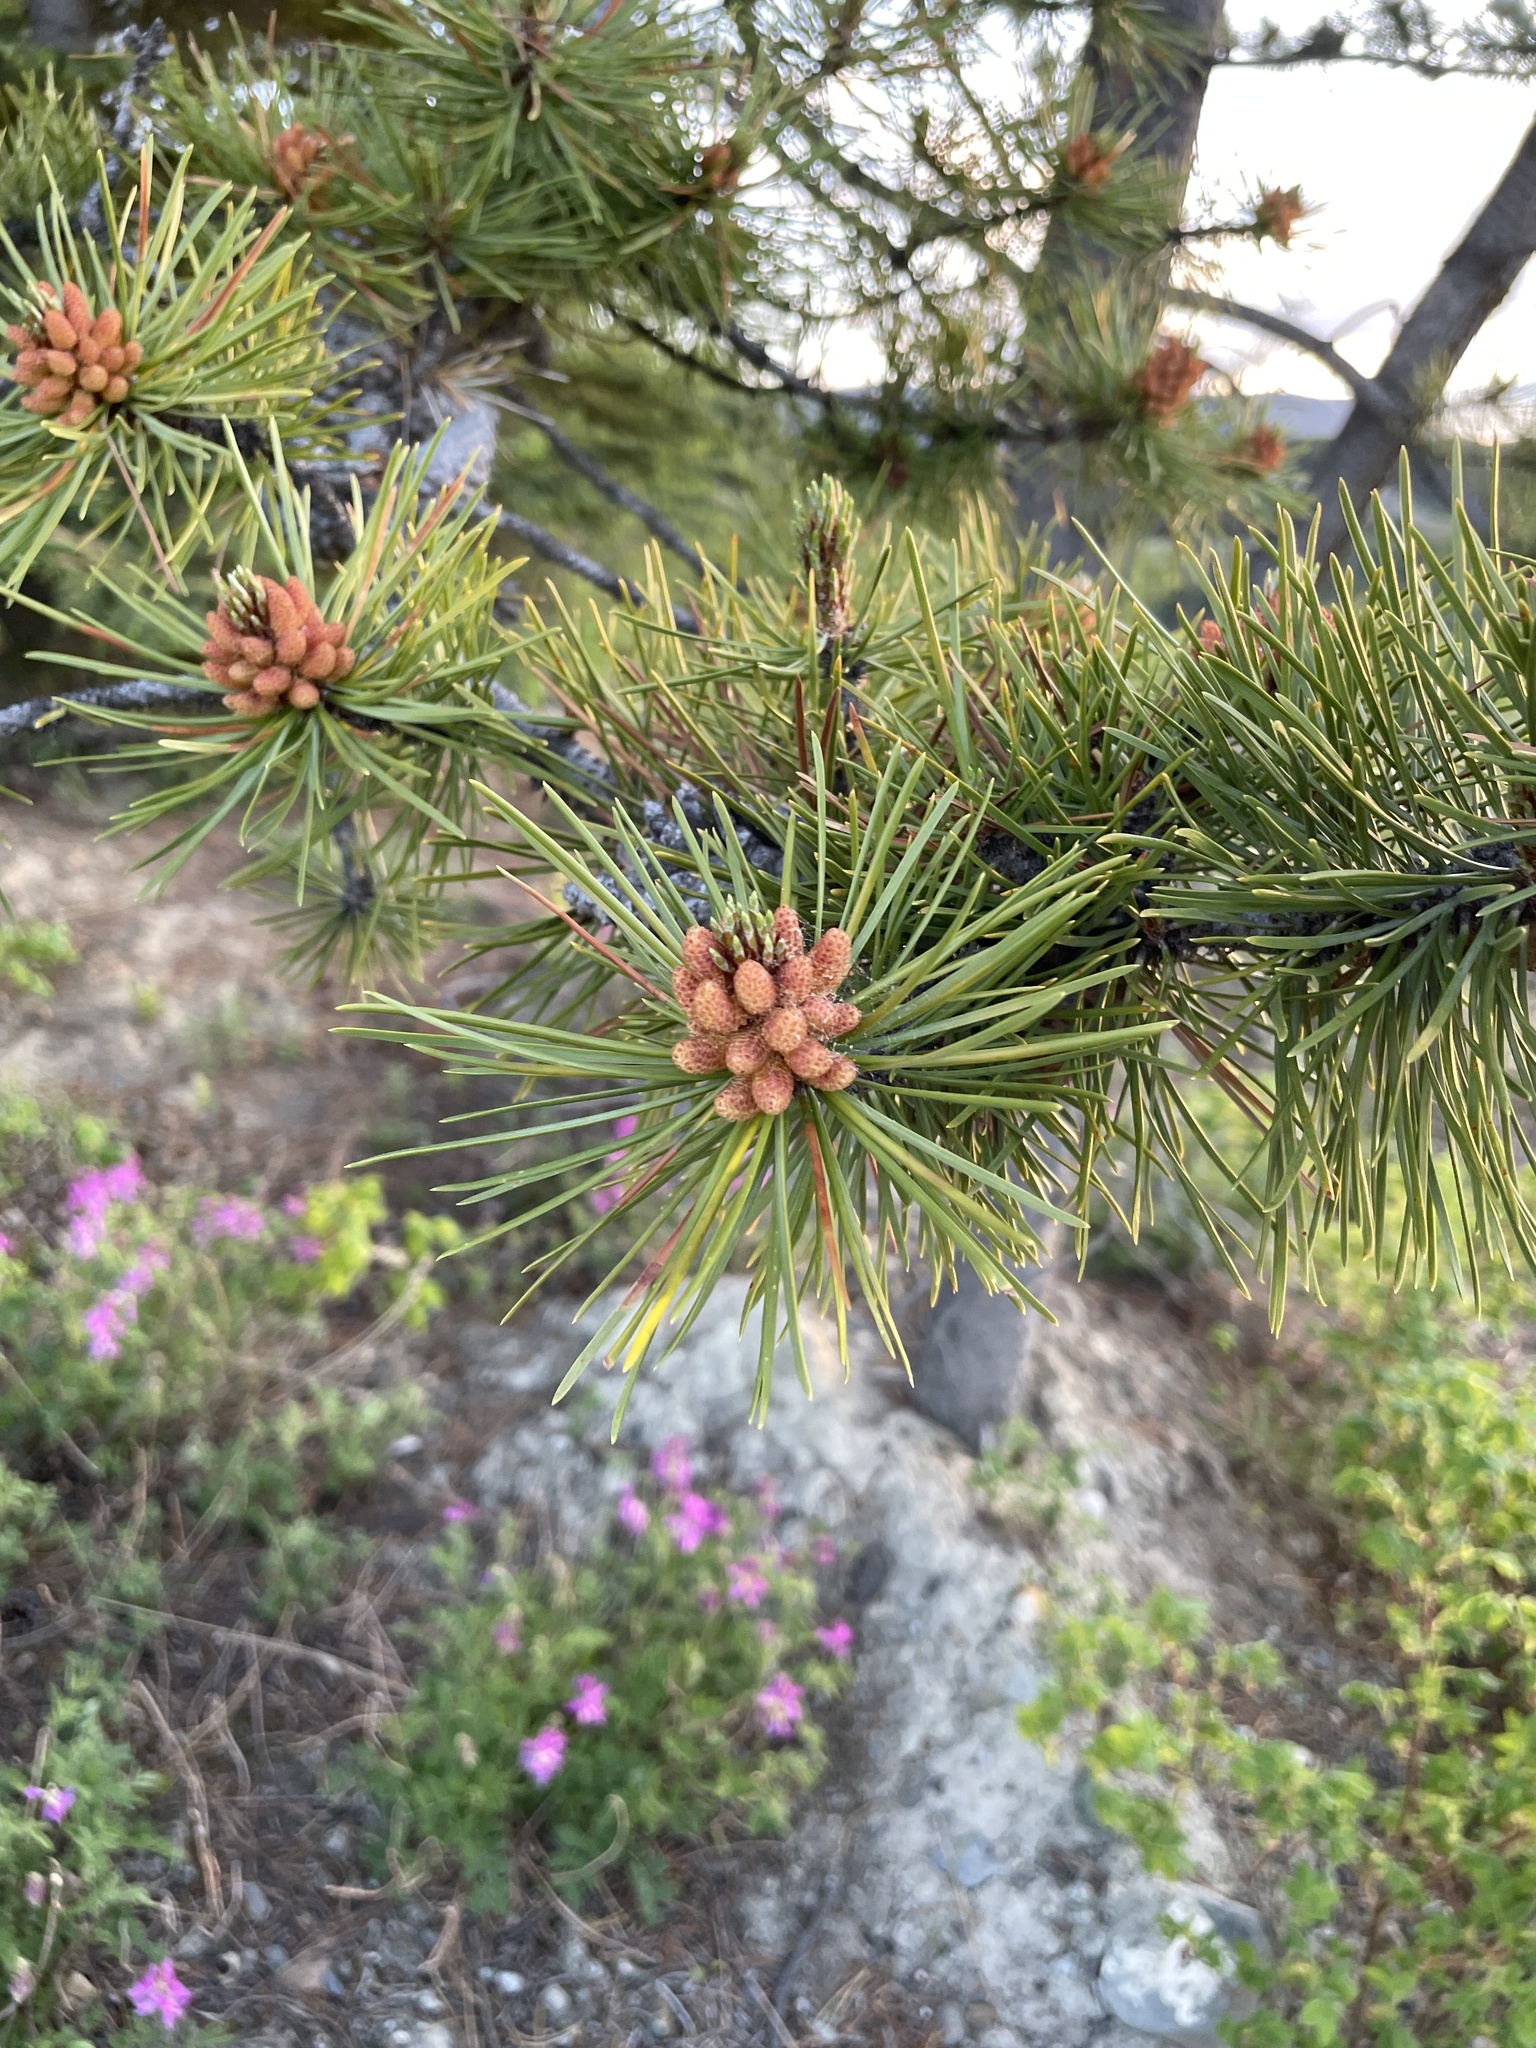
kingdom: Plantae
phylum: Tracheophyta
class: Pinopsida
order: Pinales
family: Pinaceae
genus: Pinus
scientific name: Pinus contorta
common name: Lodgepole pine
